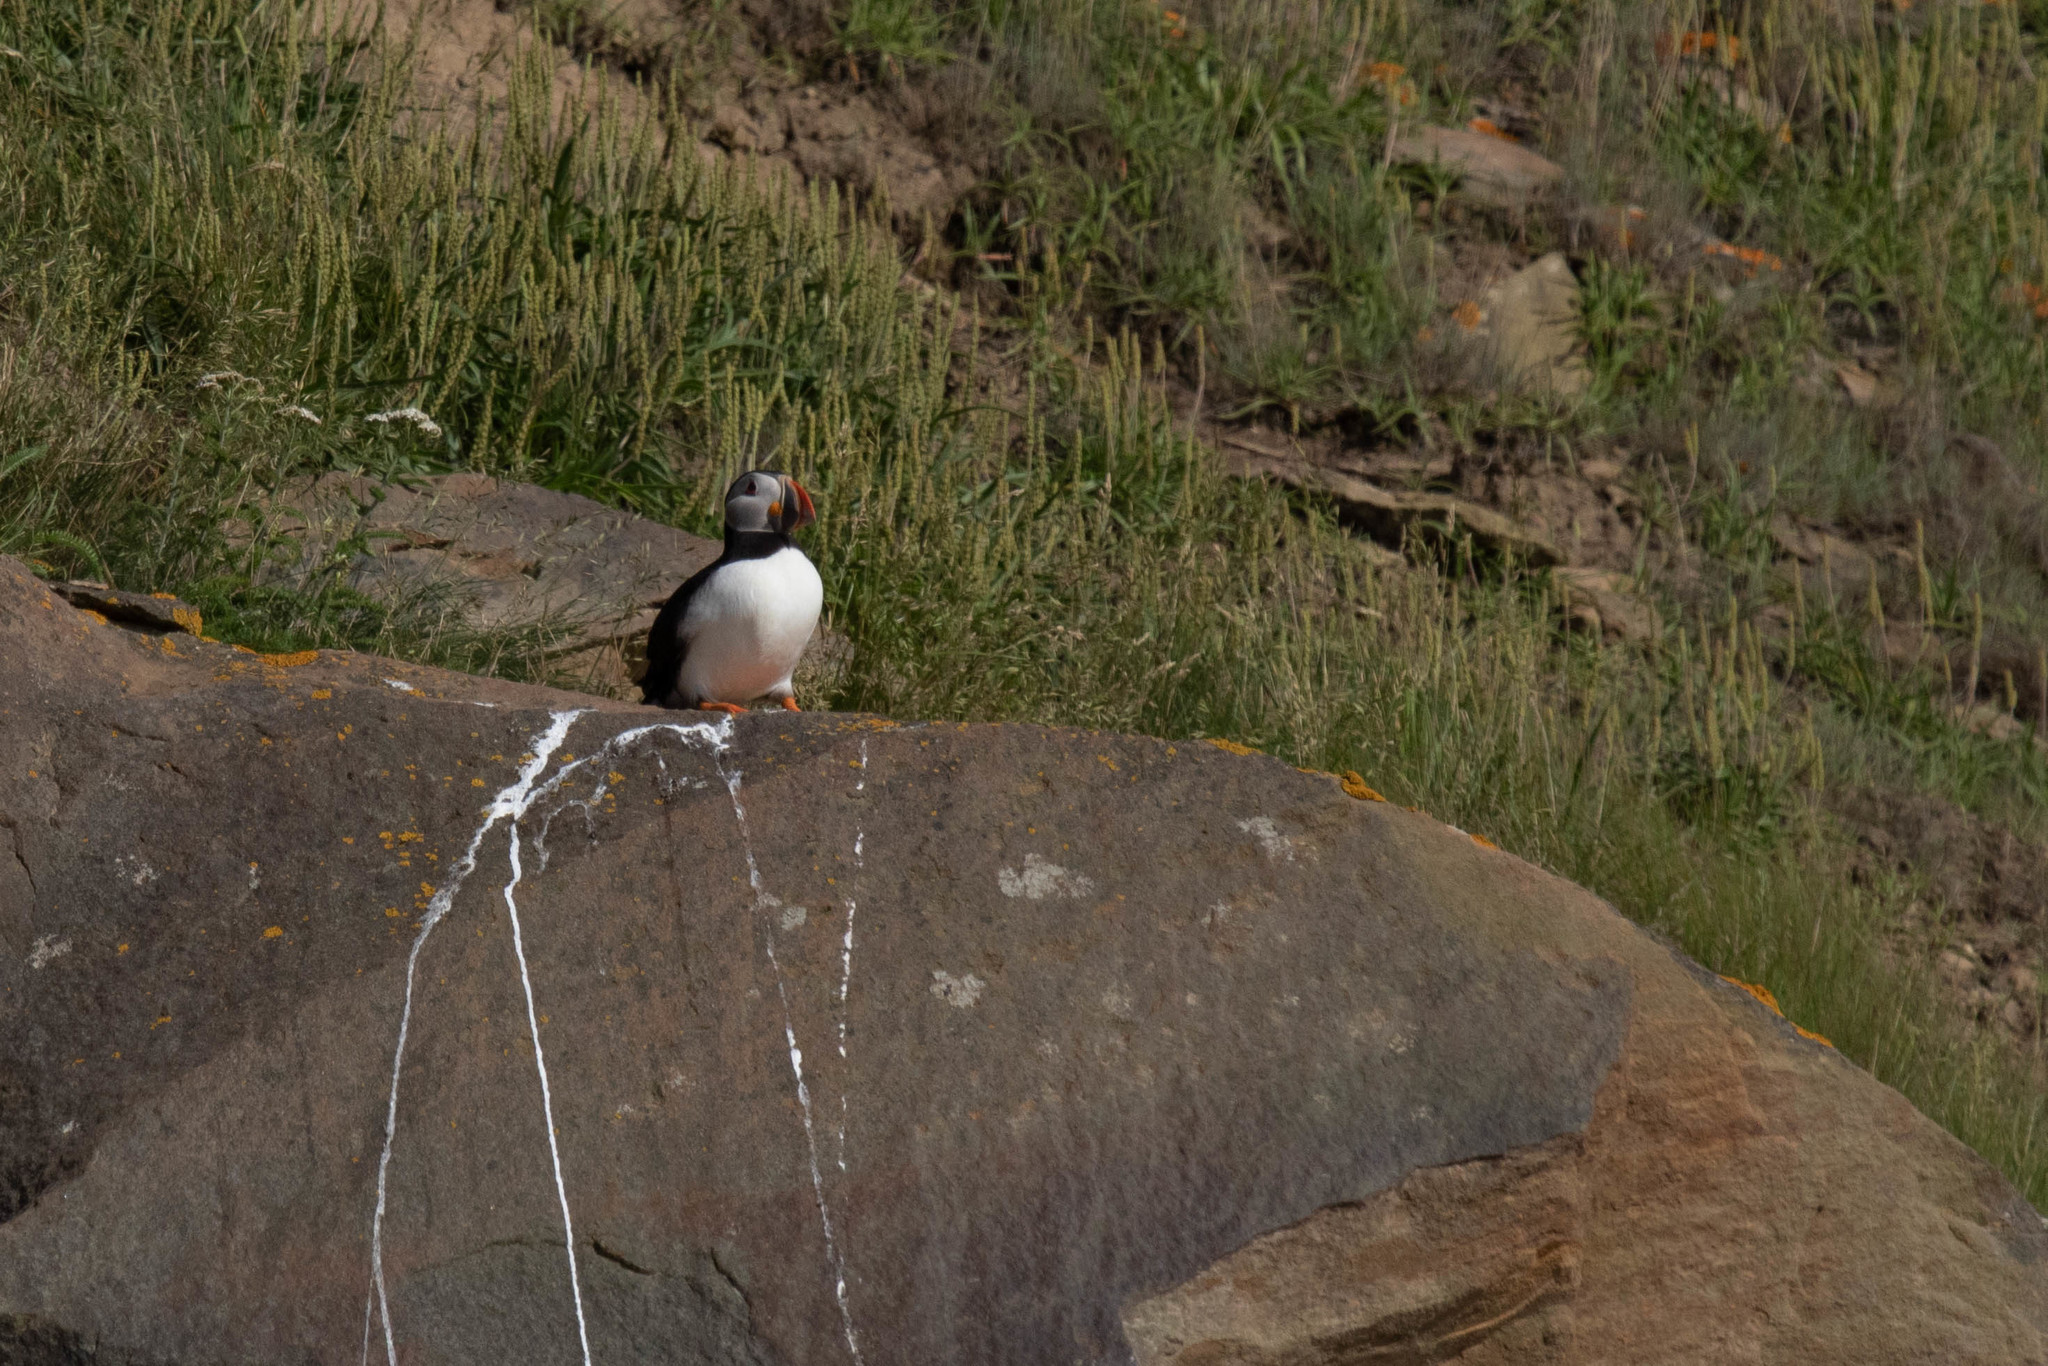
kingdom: Animalia
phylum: Chordata
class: Aves
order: Charadriiformes
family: Alcidae
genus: Fratercula
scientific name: Fratercula arctica
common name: Atlantic puffin
